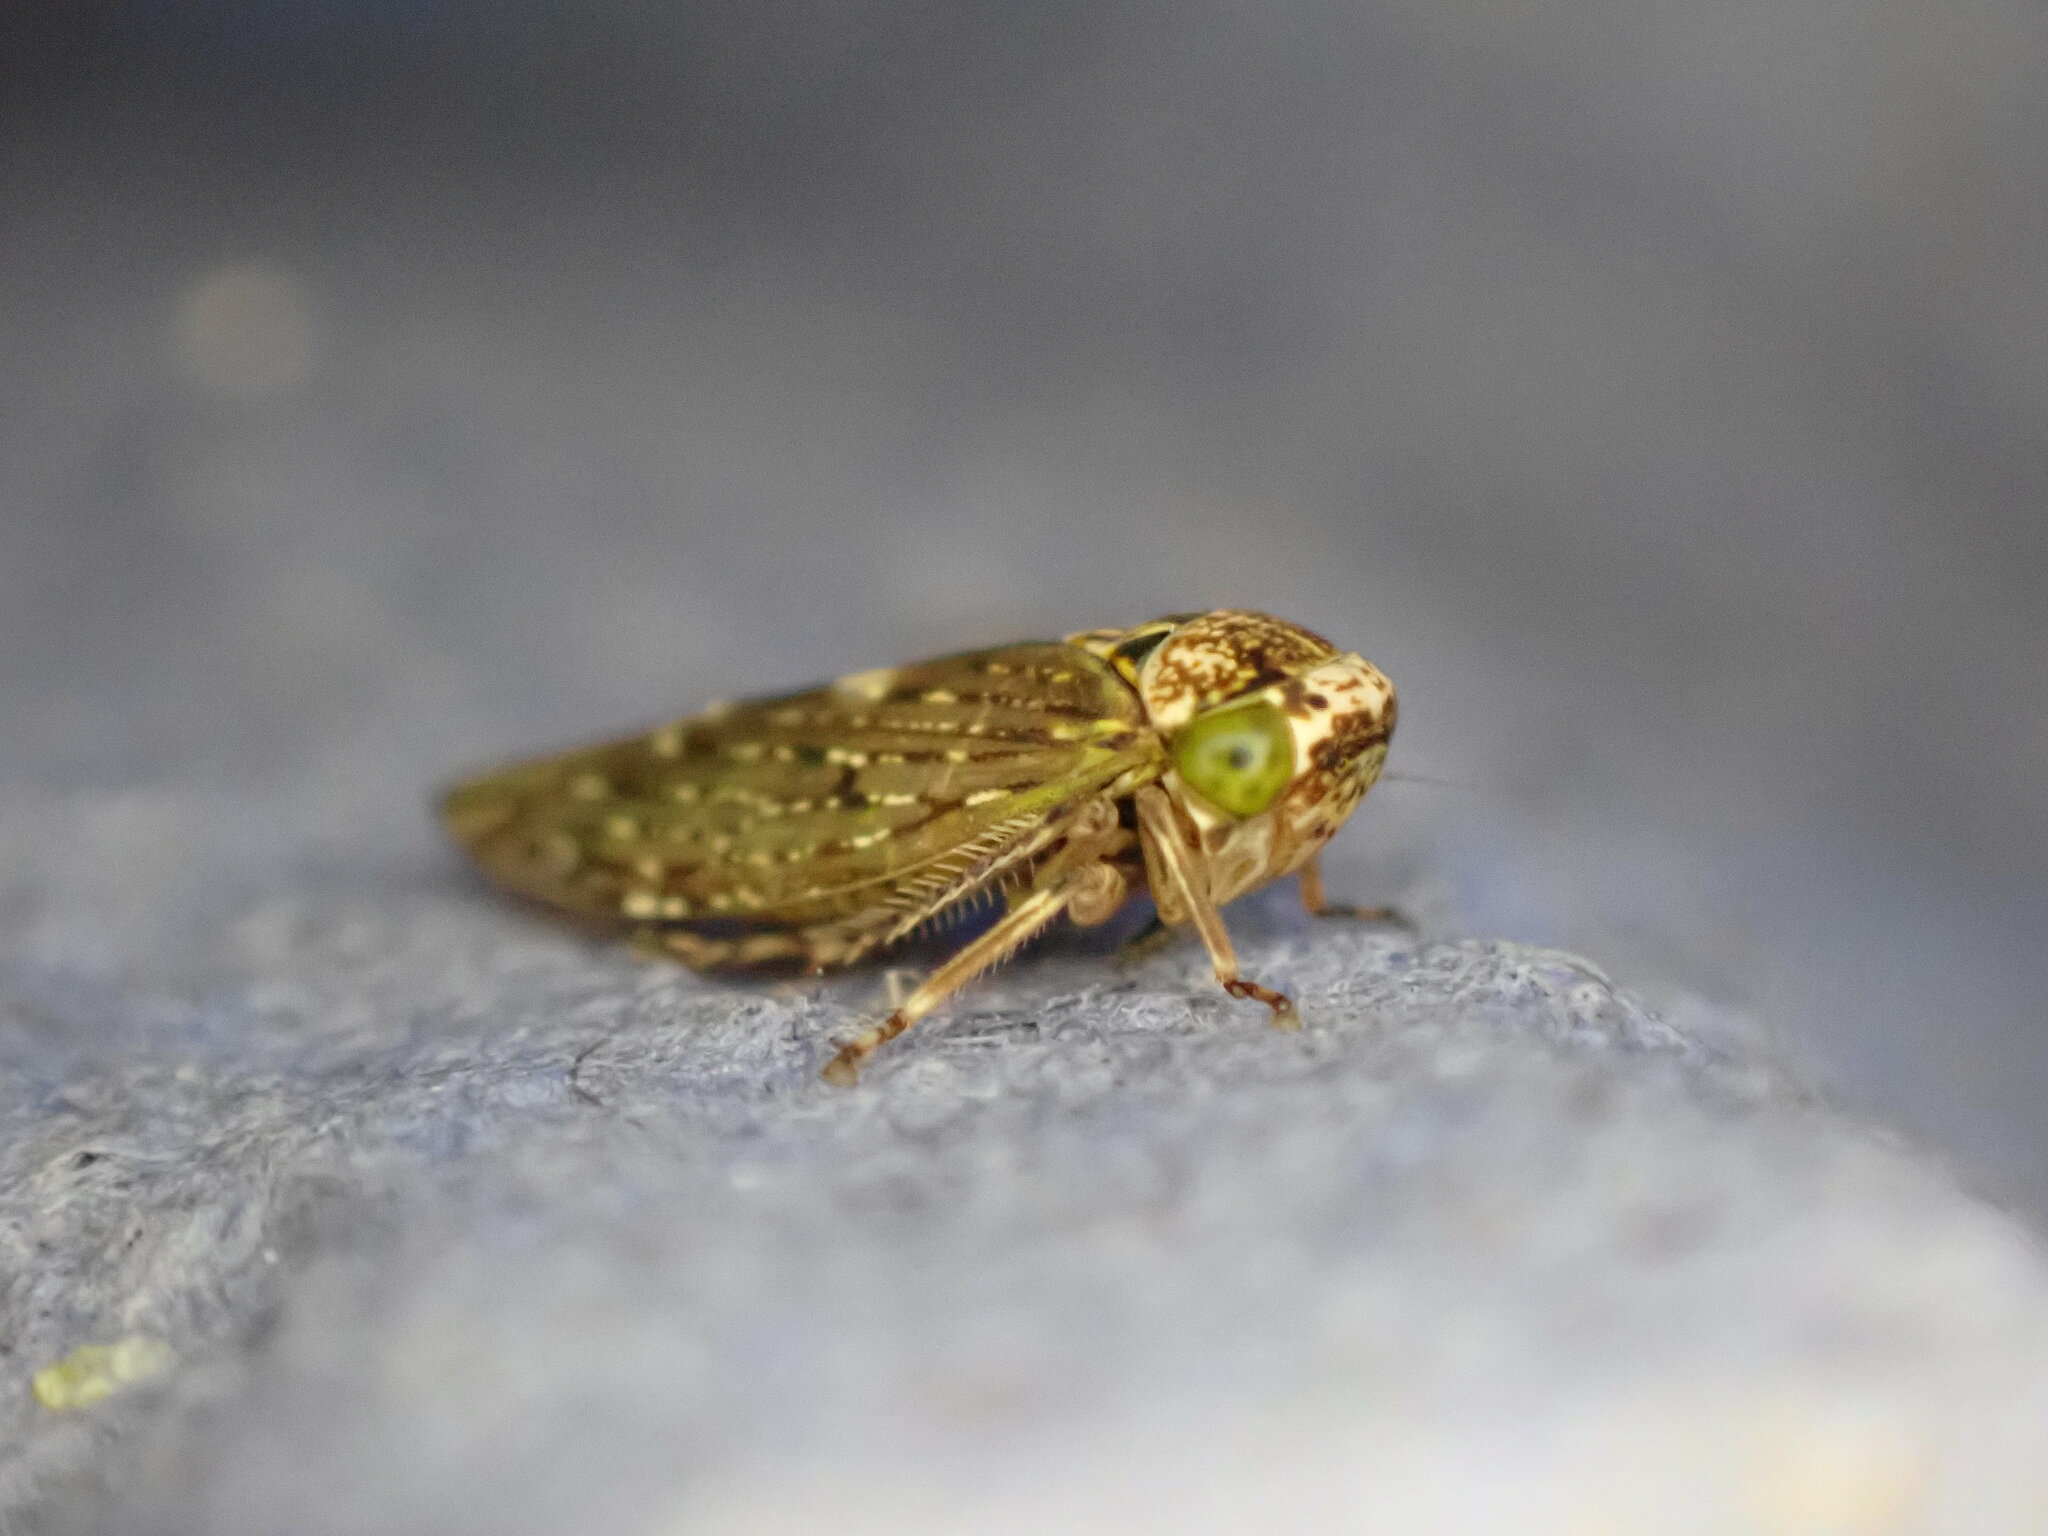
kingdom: Animalia
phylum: Arthropoda
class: Insecta
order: Hemiptera
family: Cicadellidae
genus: Acericerus
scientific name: Acericerus heydenii
